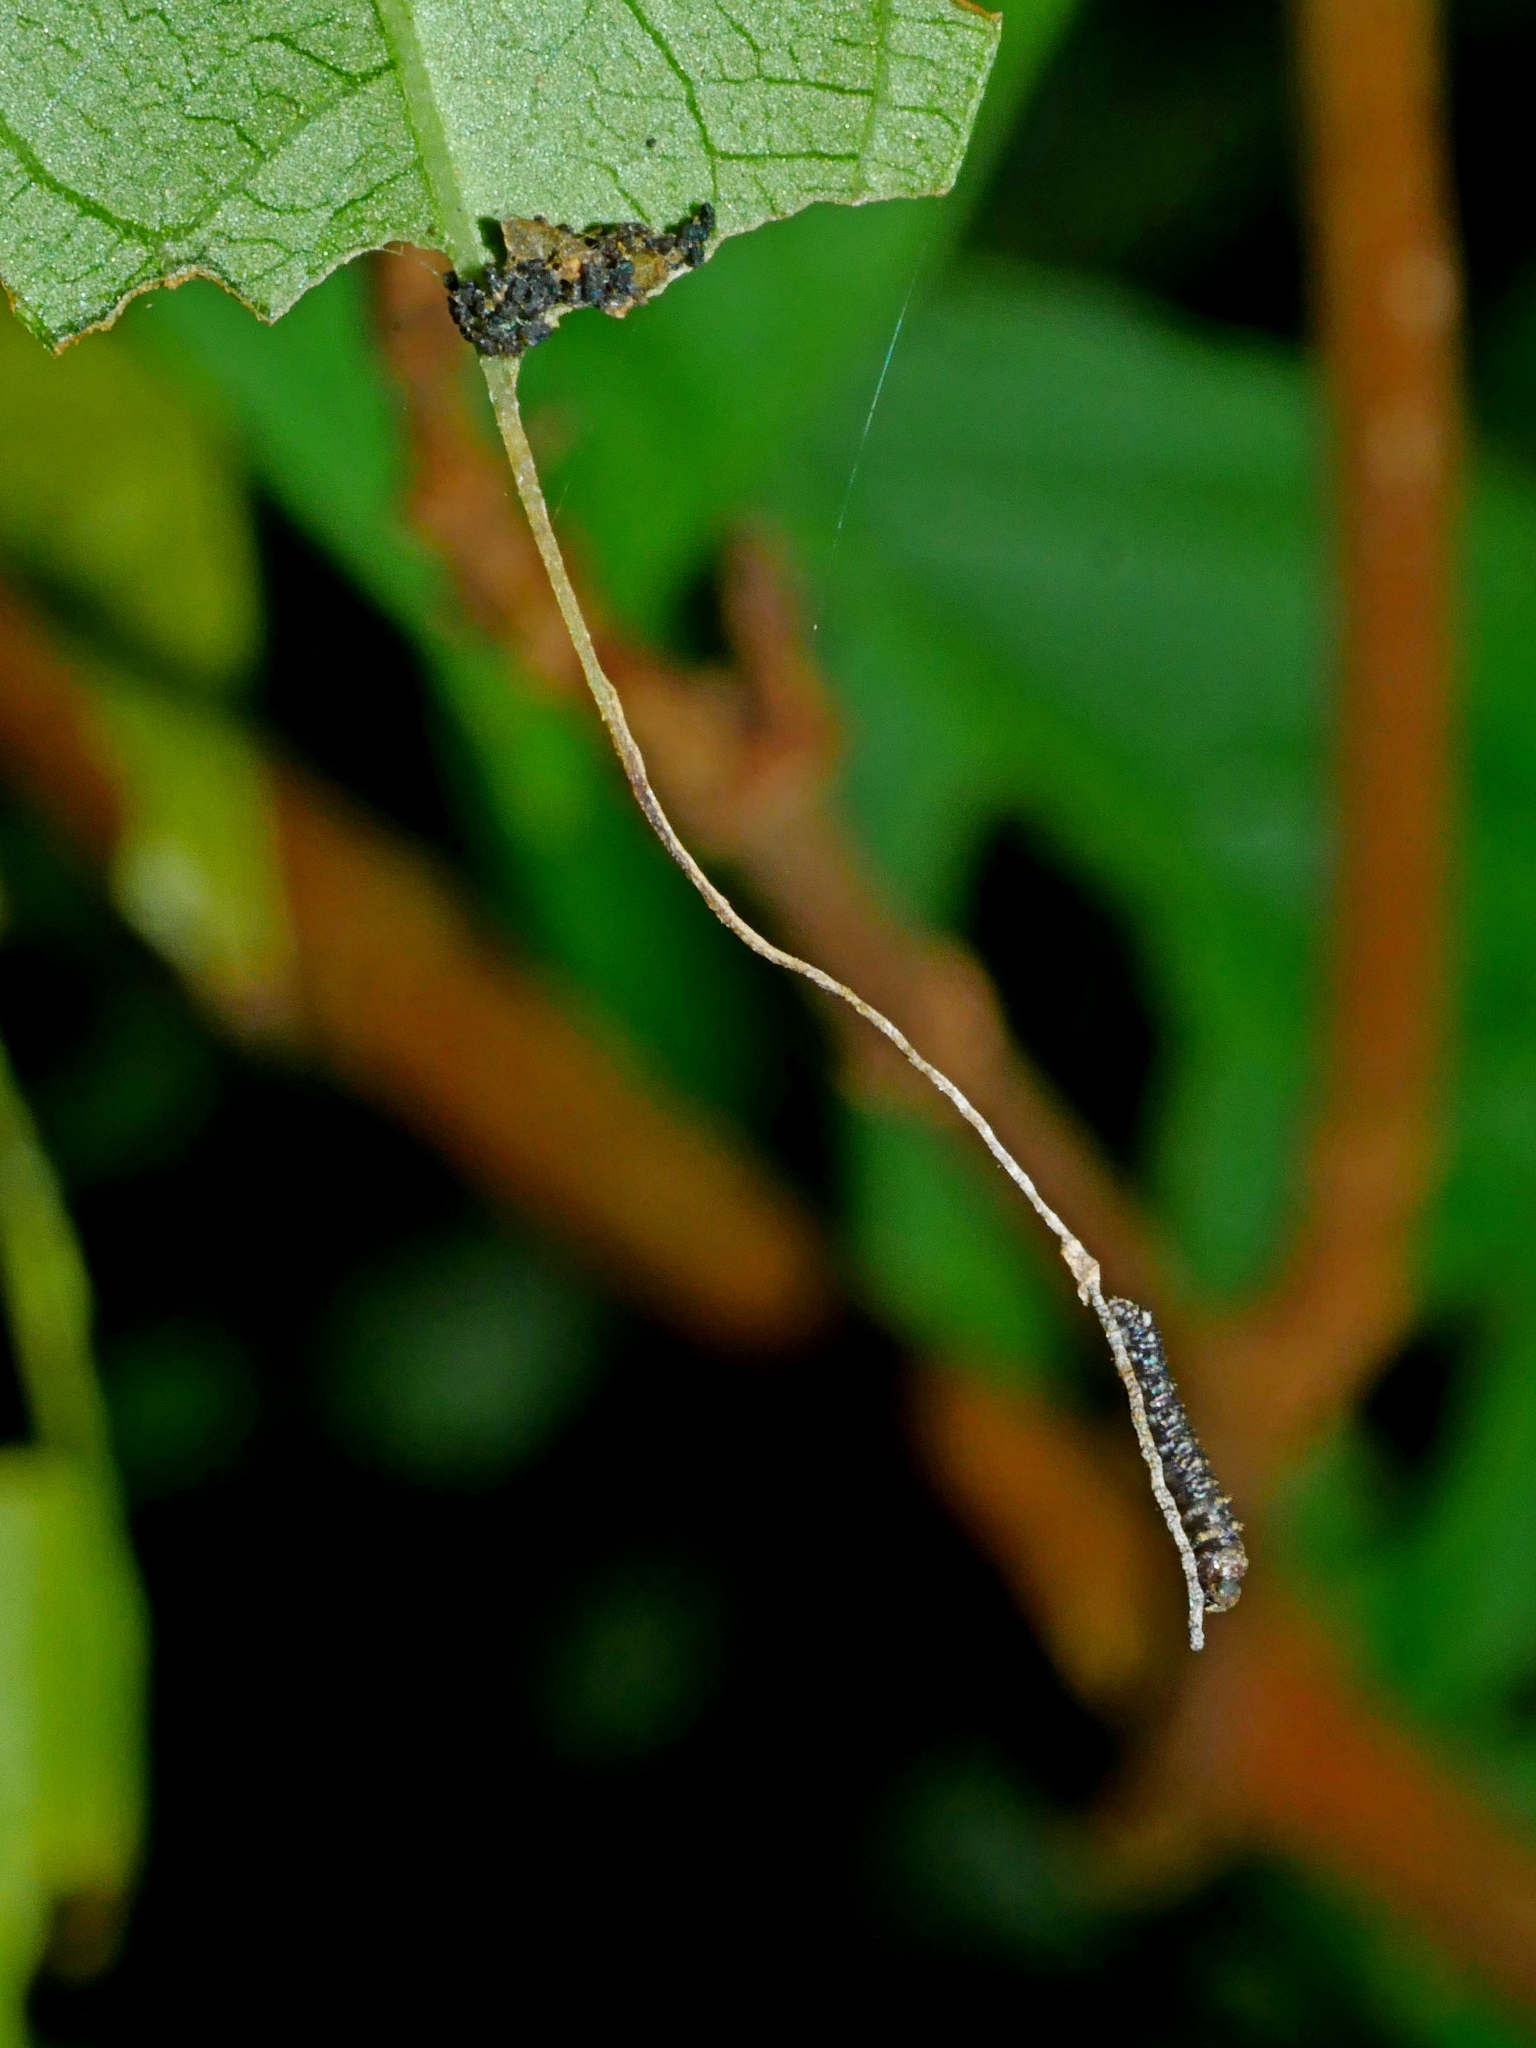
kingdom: Animalia
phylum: Arthropoda
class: Insecta
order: Lepidoptera
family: Nymphalidae
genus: Parathyma
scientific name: Parathyma selenophora
